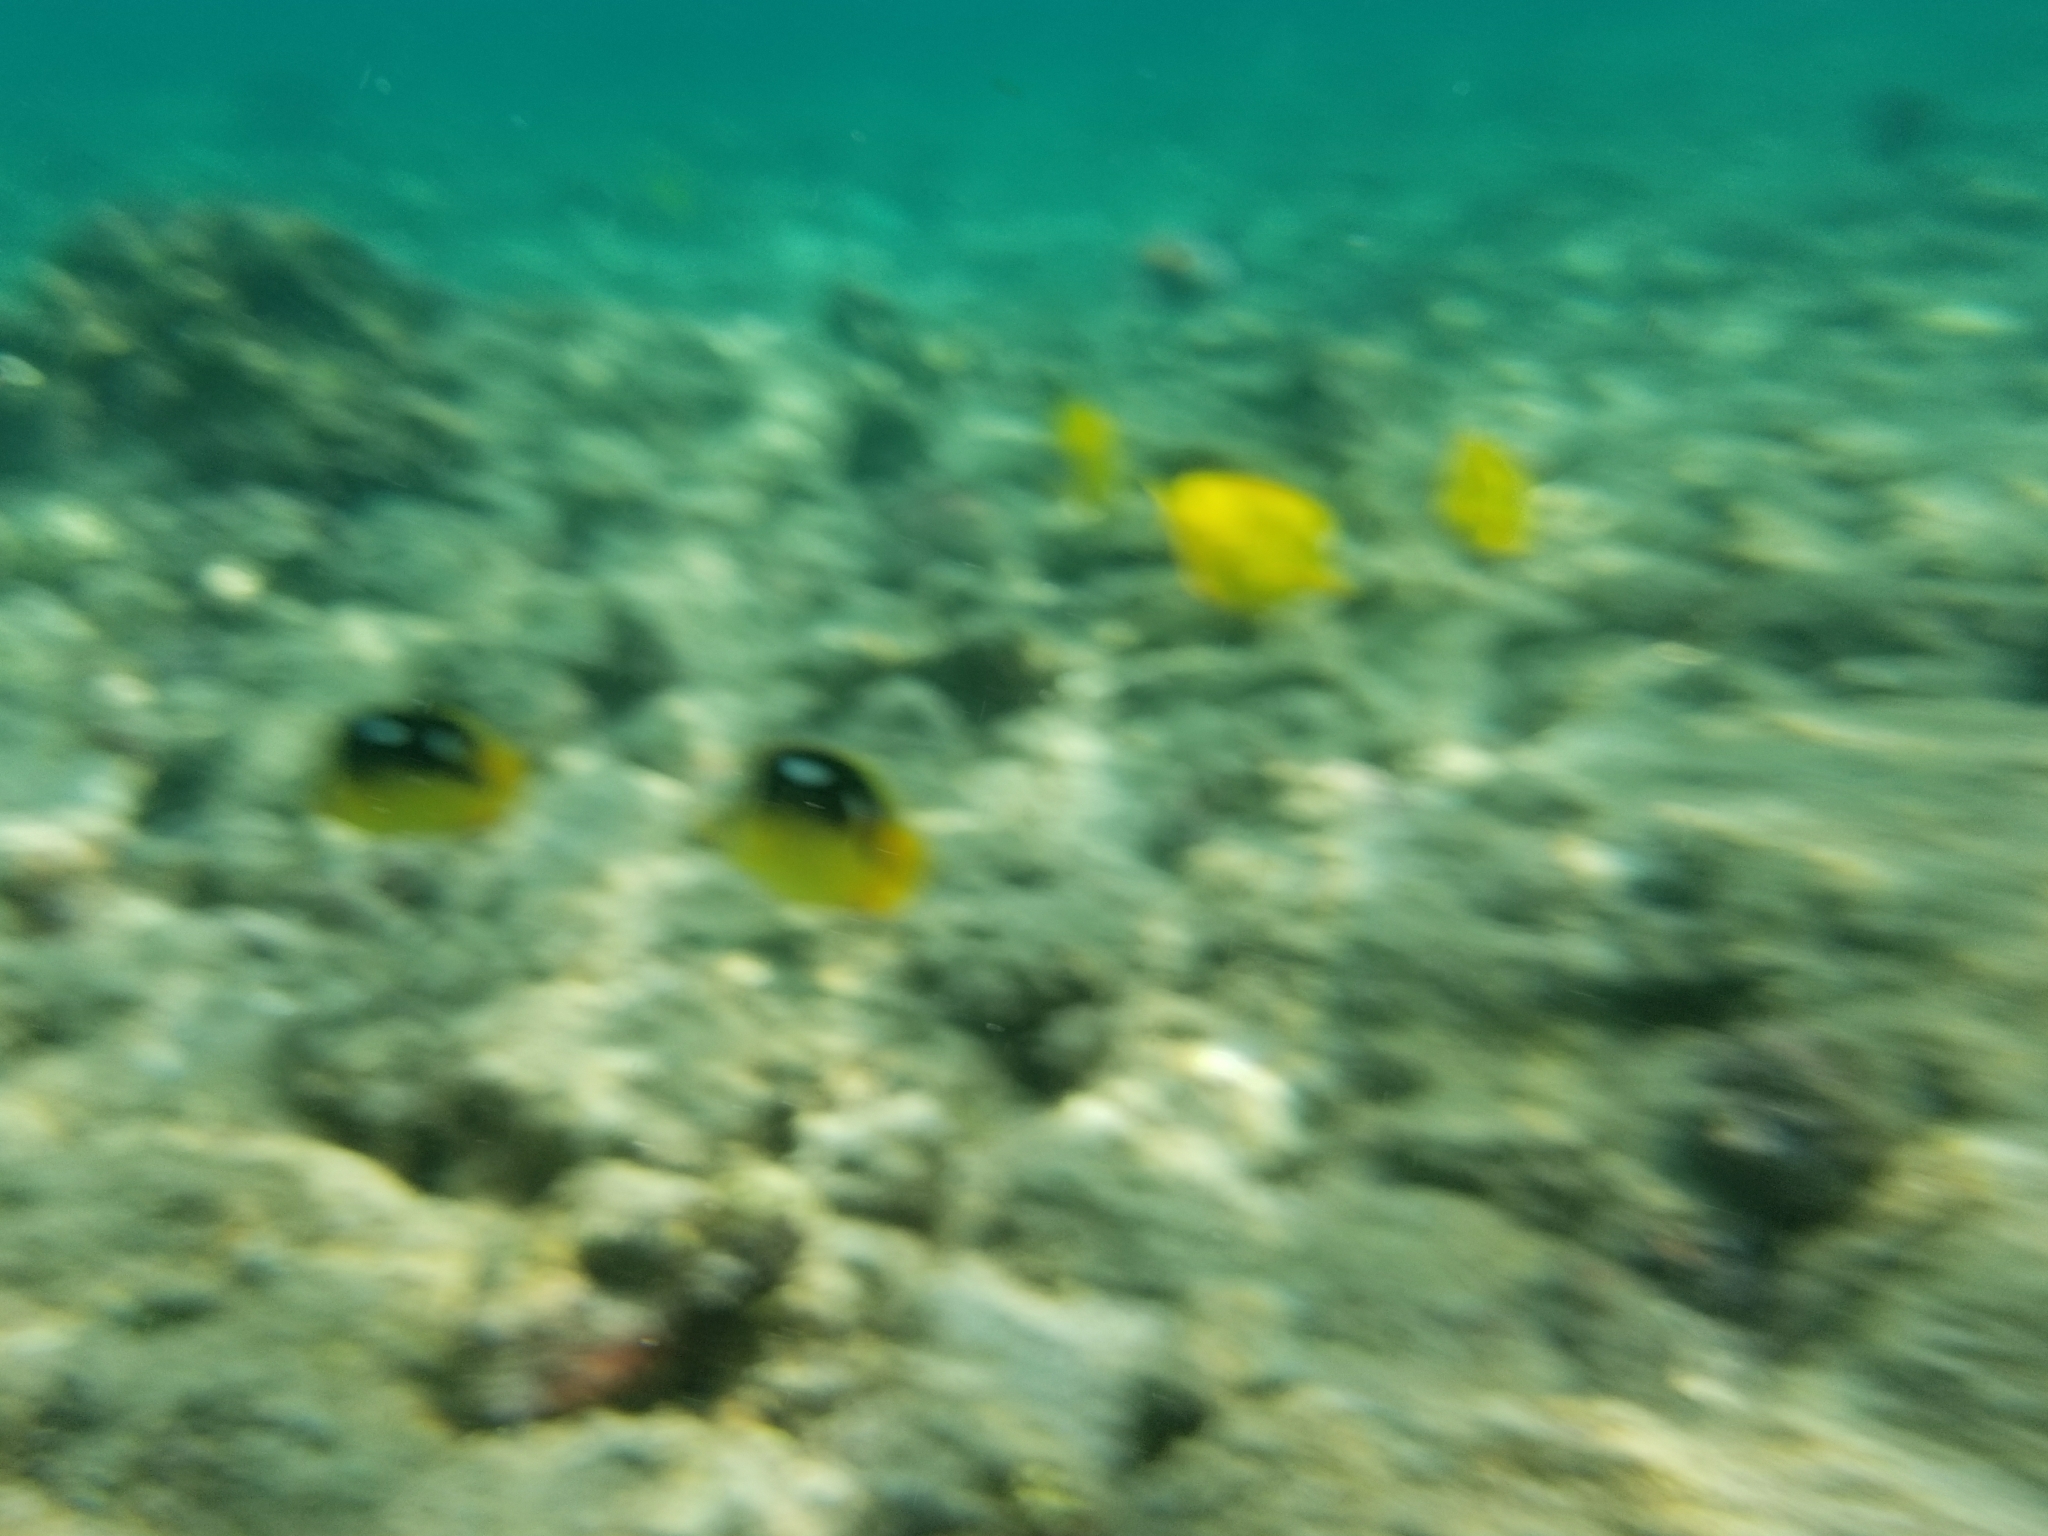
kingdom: Animalia
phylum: Chordata
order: Perciformes
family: Chaetodontidae
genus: Chaetodon
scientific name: Chaetodon quadrimaculatus
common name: Fourspot butterflyfish
